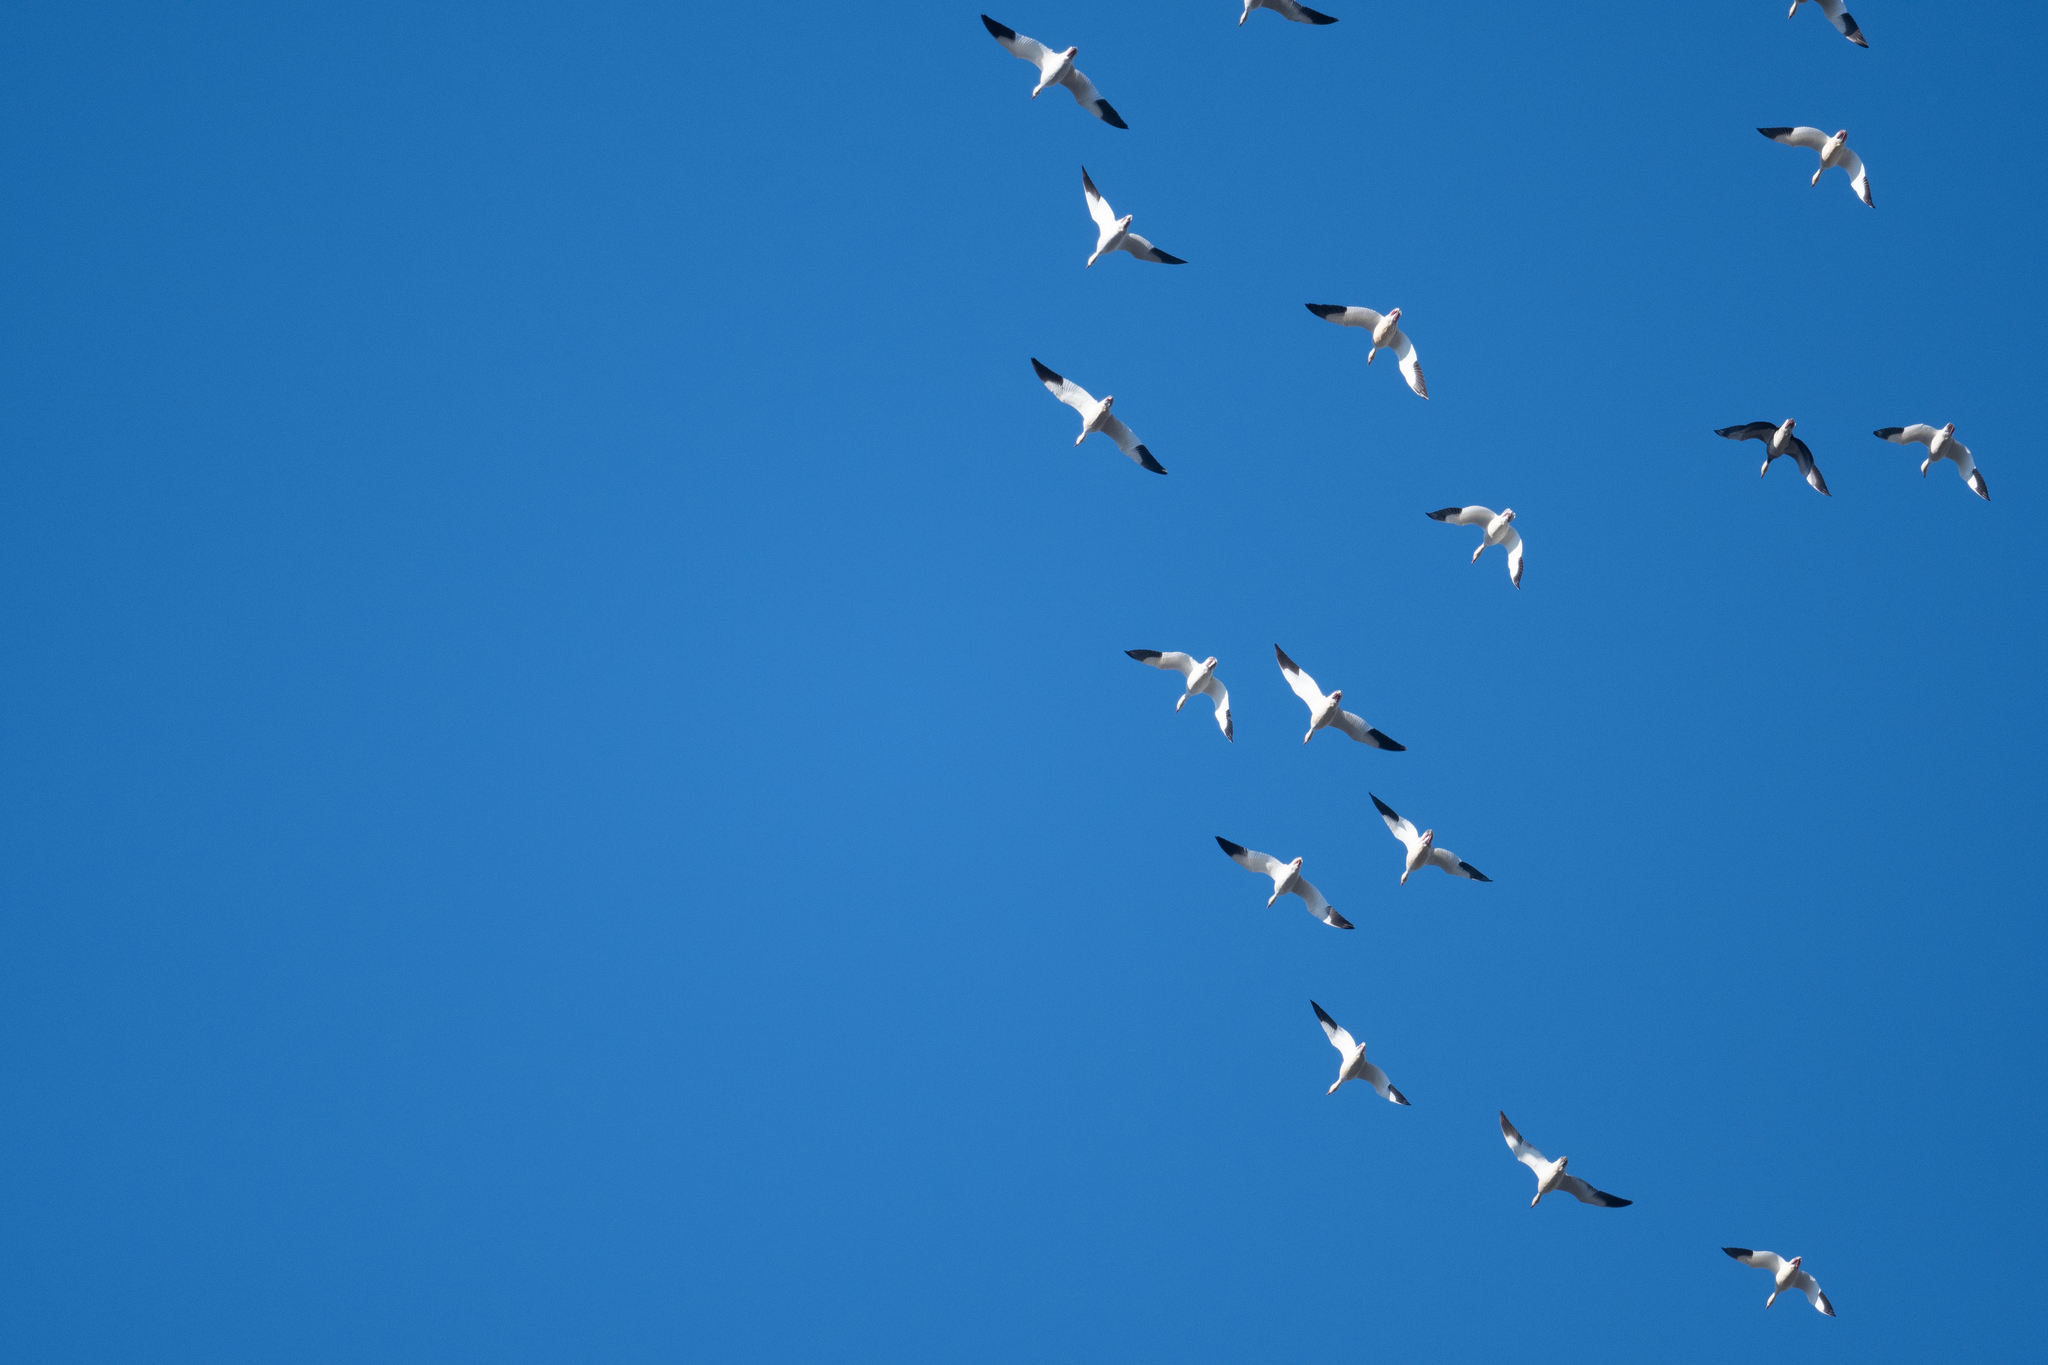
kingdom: Animalia
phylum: Chordata
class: Aves
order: Anseriformes
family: Anatidae
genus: Anser
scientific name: Anser caerulescens
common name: Snow goose
